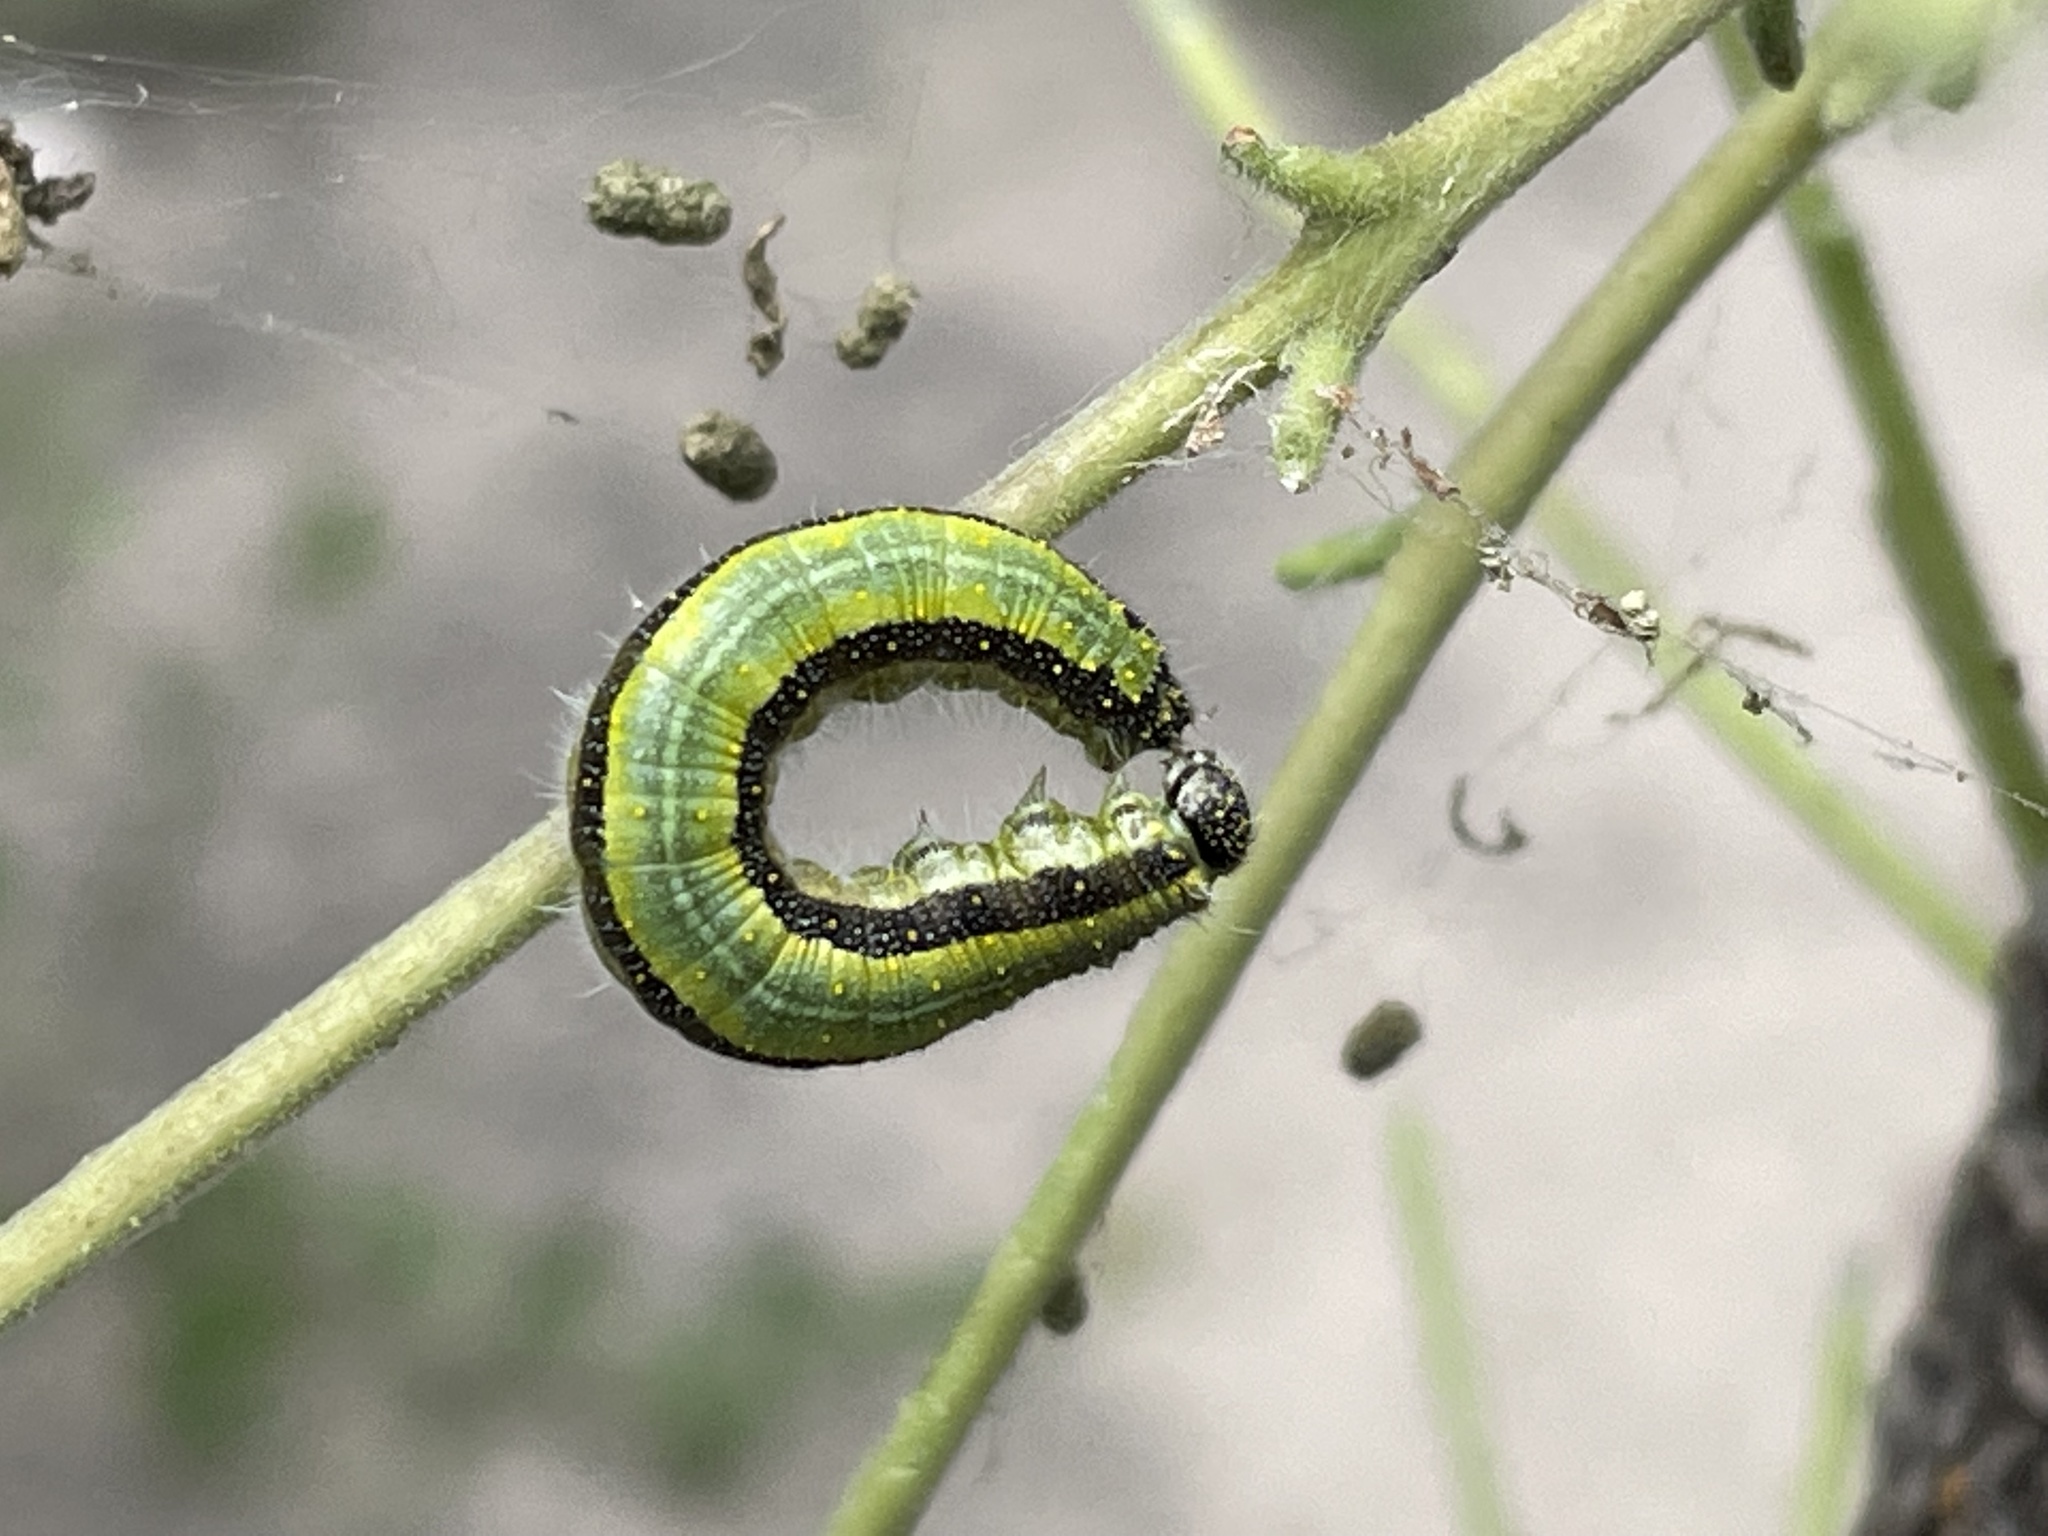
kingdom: Animalia
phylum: Arthropoda
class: Insecta
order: Lepidoptera
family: Pieridae
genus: Belenois
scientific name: Belenois aurota
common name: Brown-veined white
